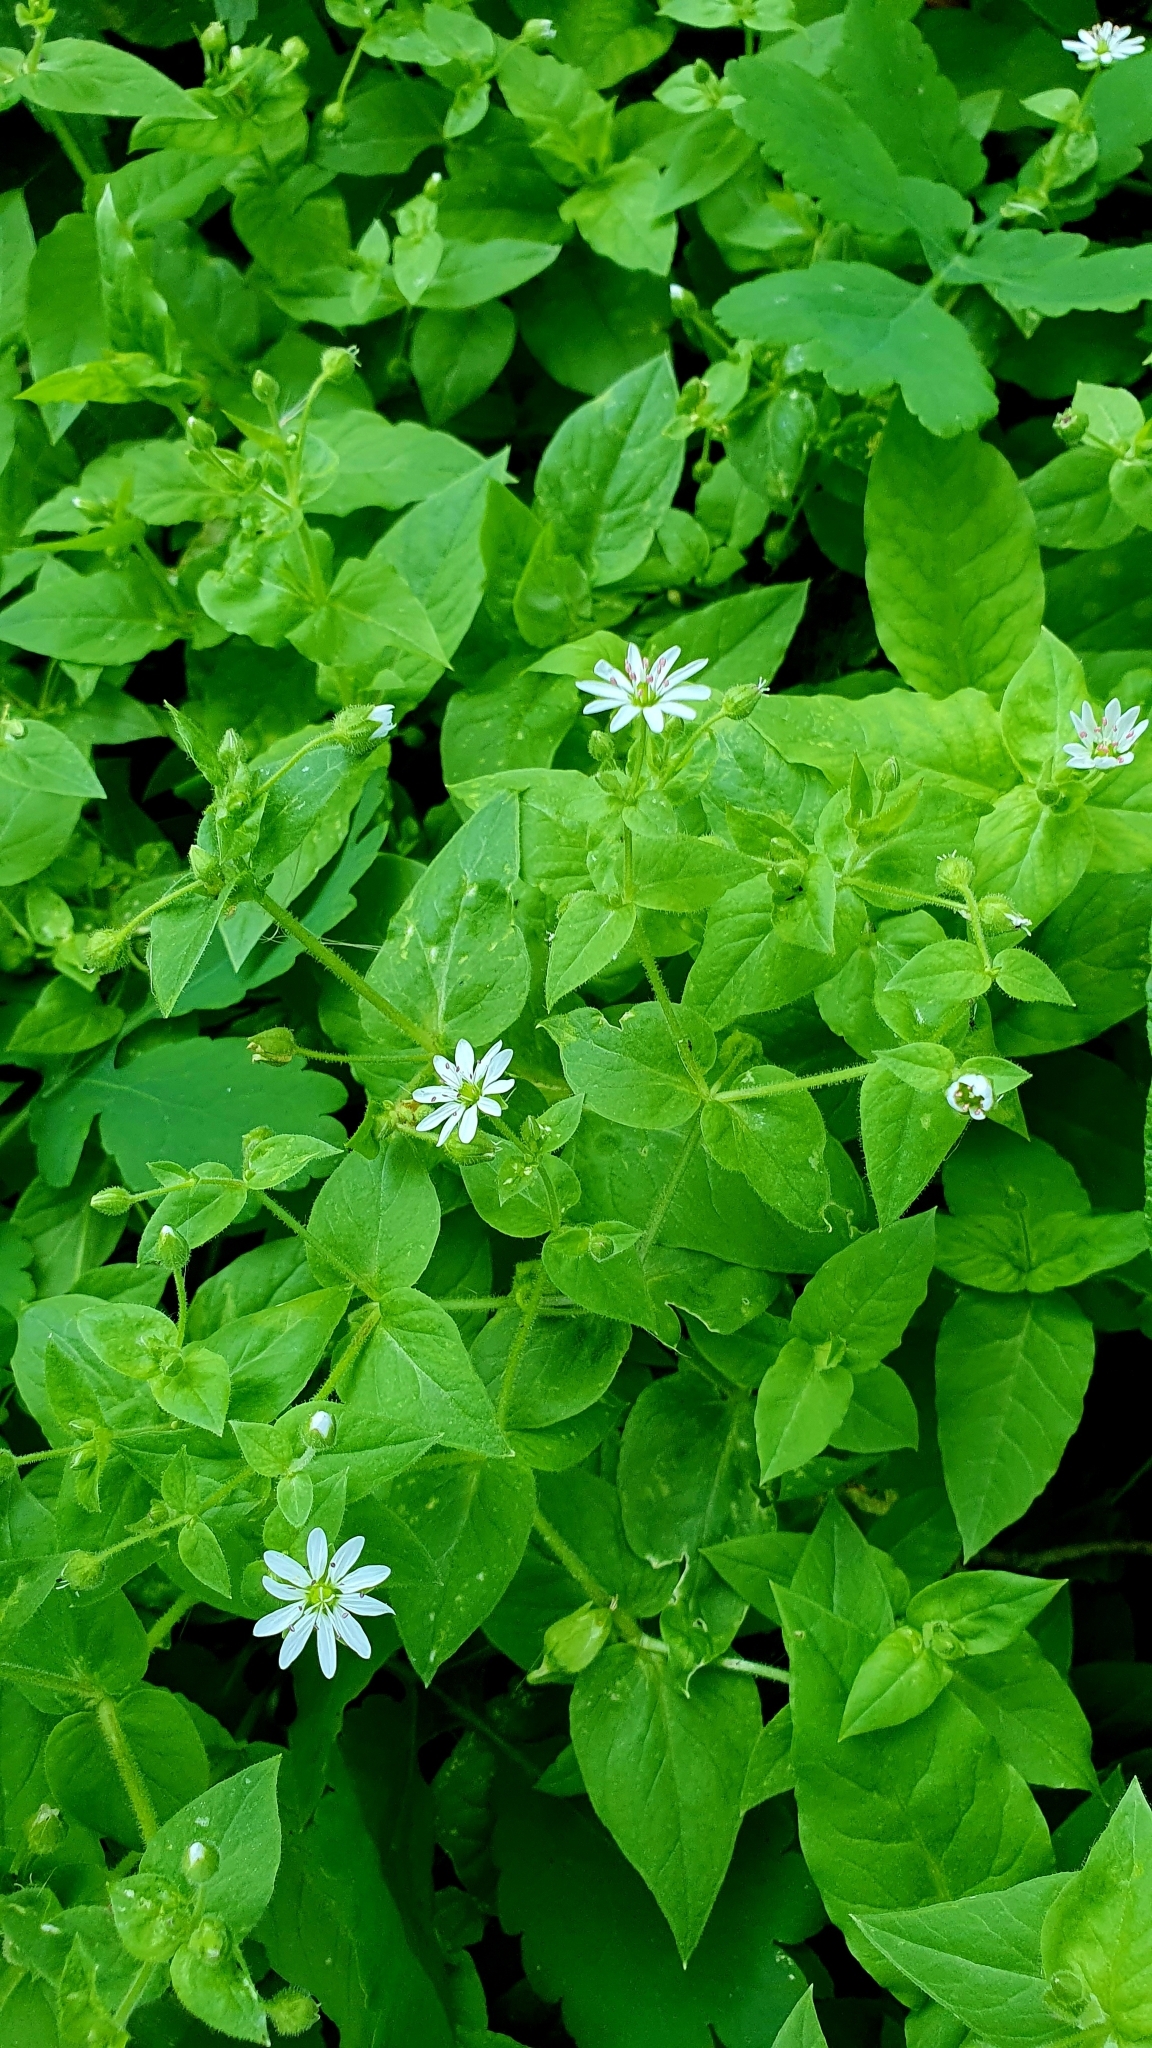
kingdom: Plantae
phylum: Tracheophyta
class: Magnoliopsida
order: Caryophyllales
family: Caryophyllaceae
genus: Stellaria
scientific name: Stellaria aquatica
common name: Water chickweed
